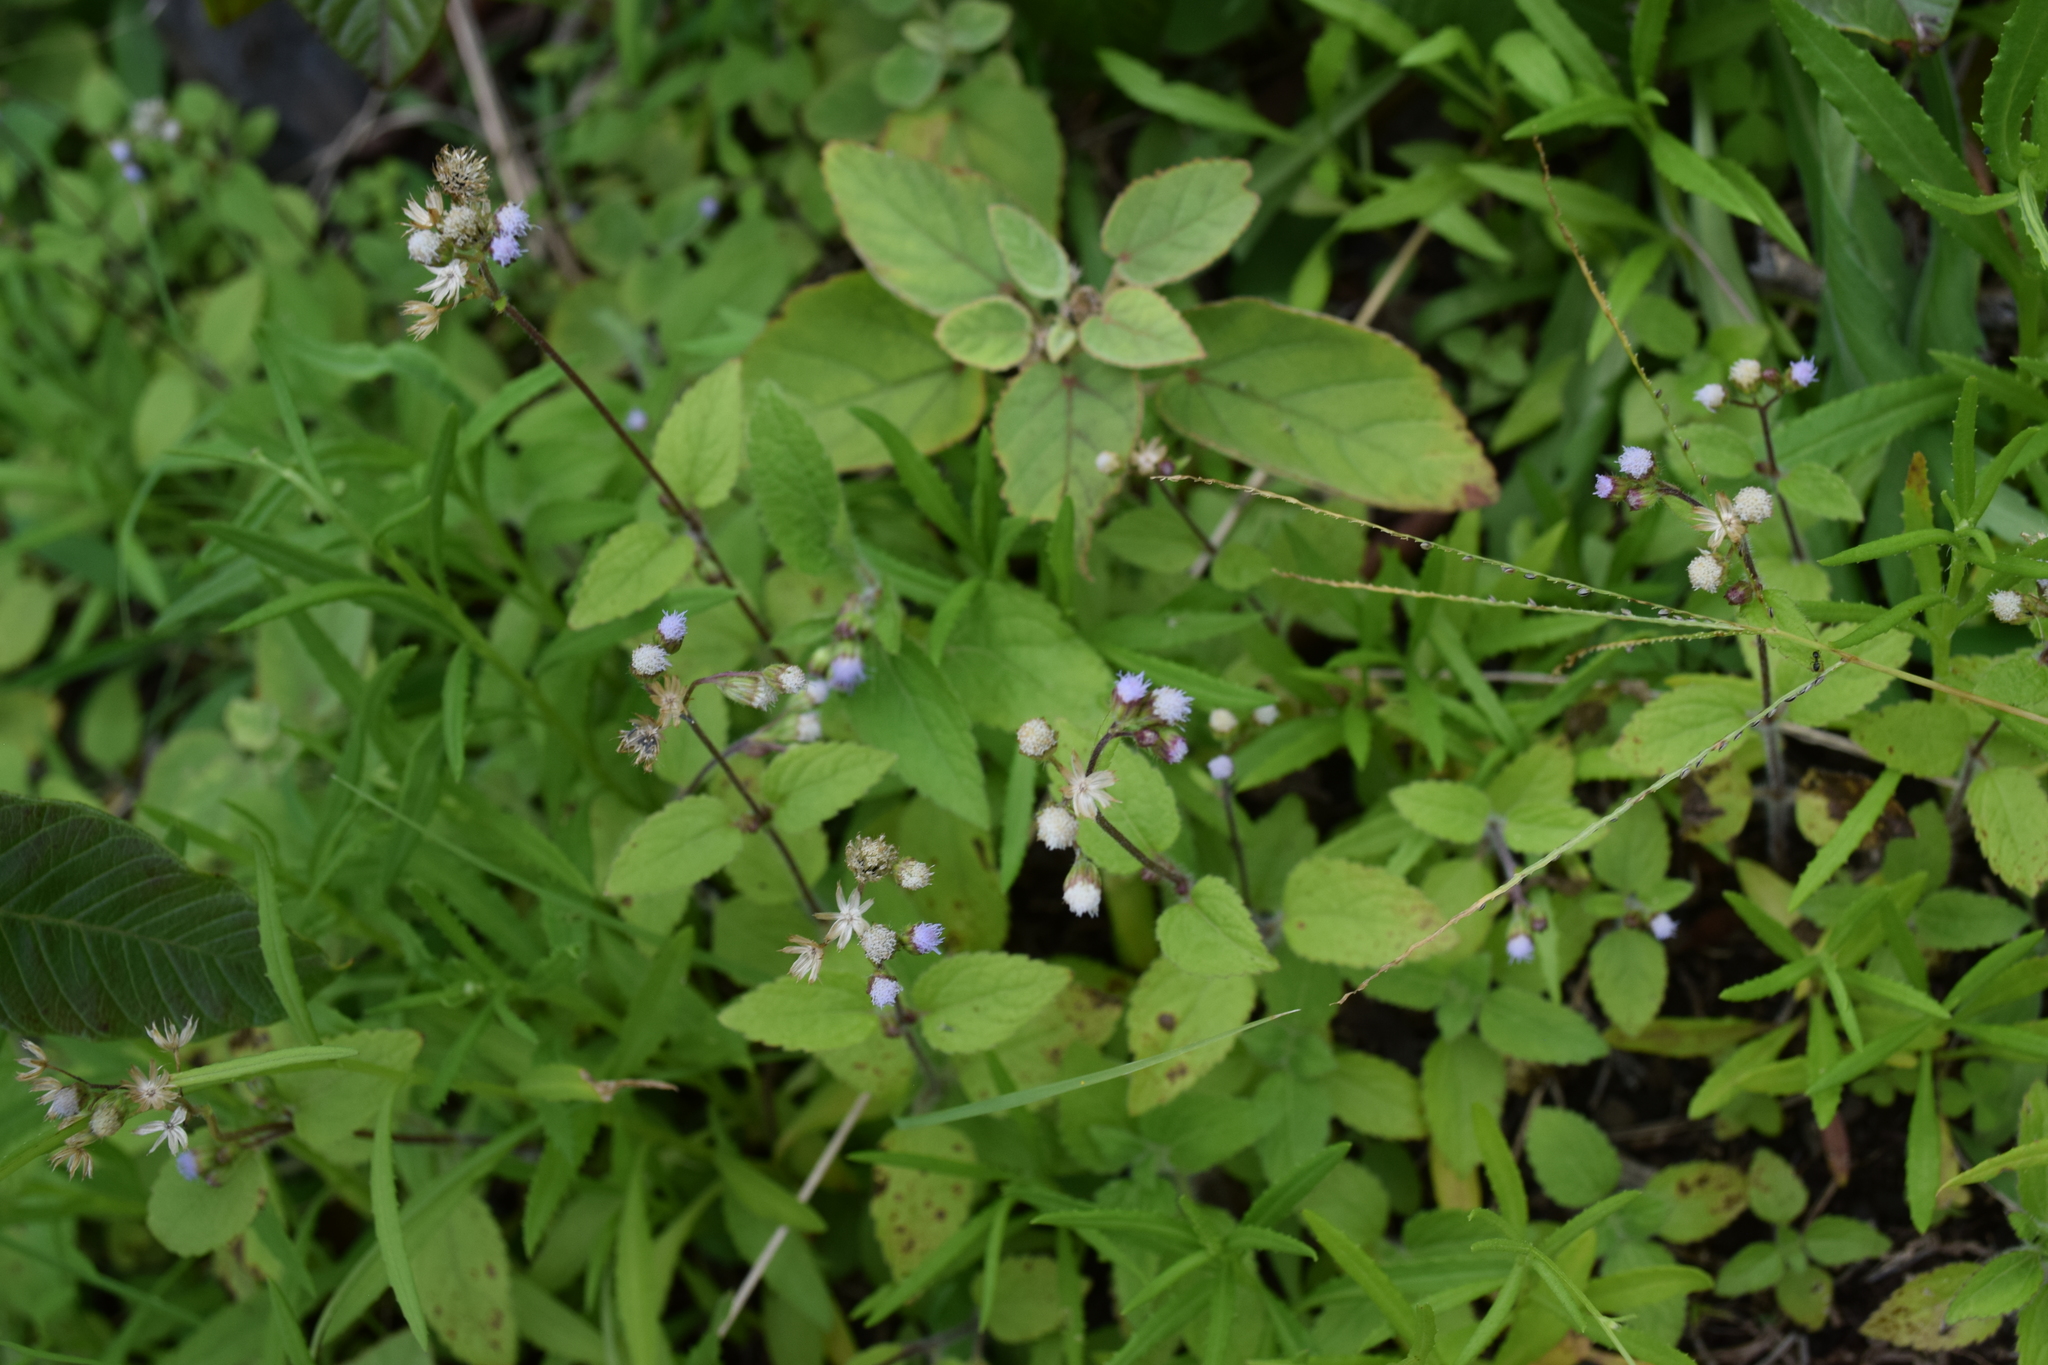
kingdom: Plantae
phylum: Tracheophyta
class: Magnoliopsida
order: Asterales
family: Asteraceae
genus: Ageratum
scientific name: Ageratum conyzoides
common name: Tropical whiteweed
